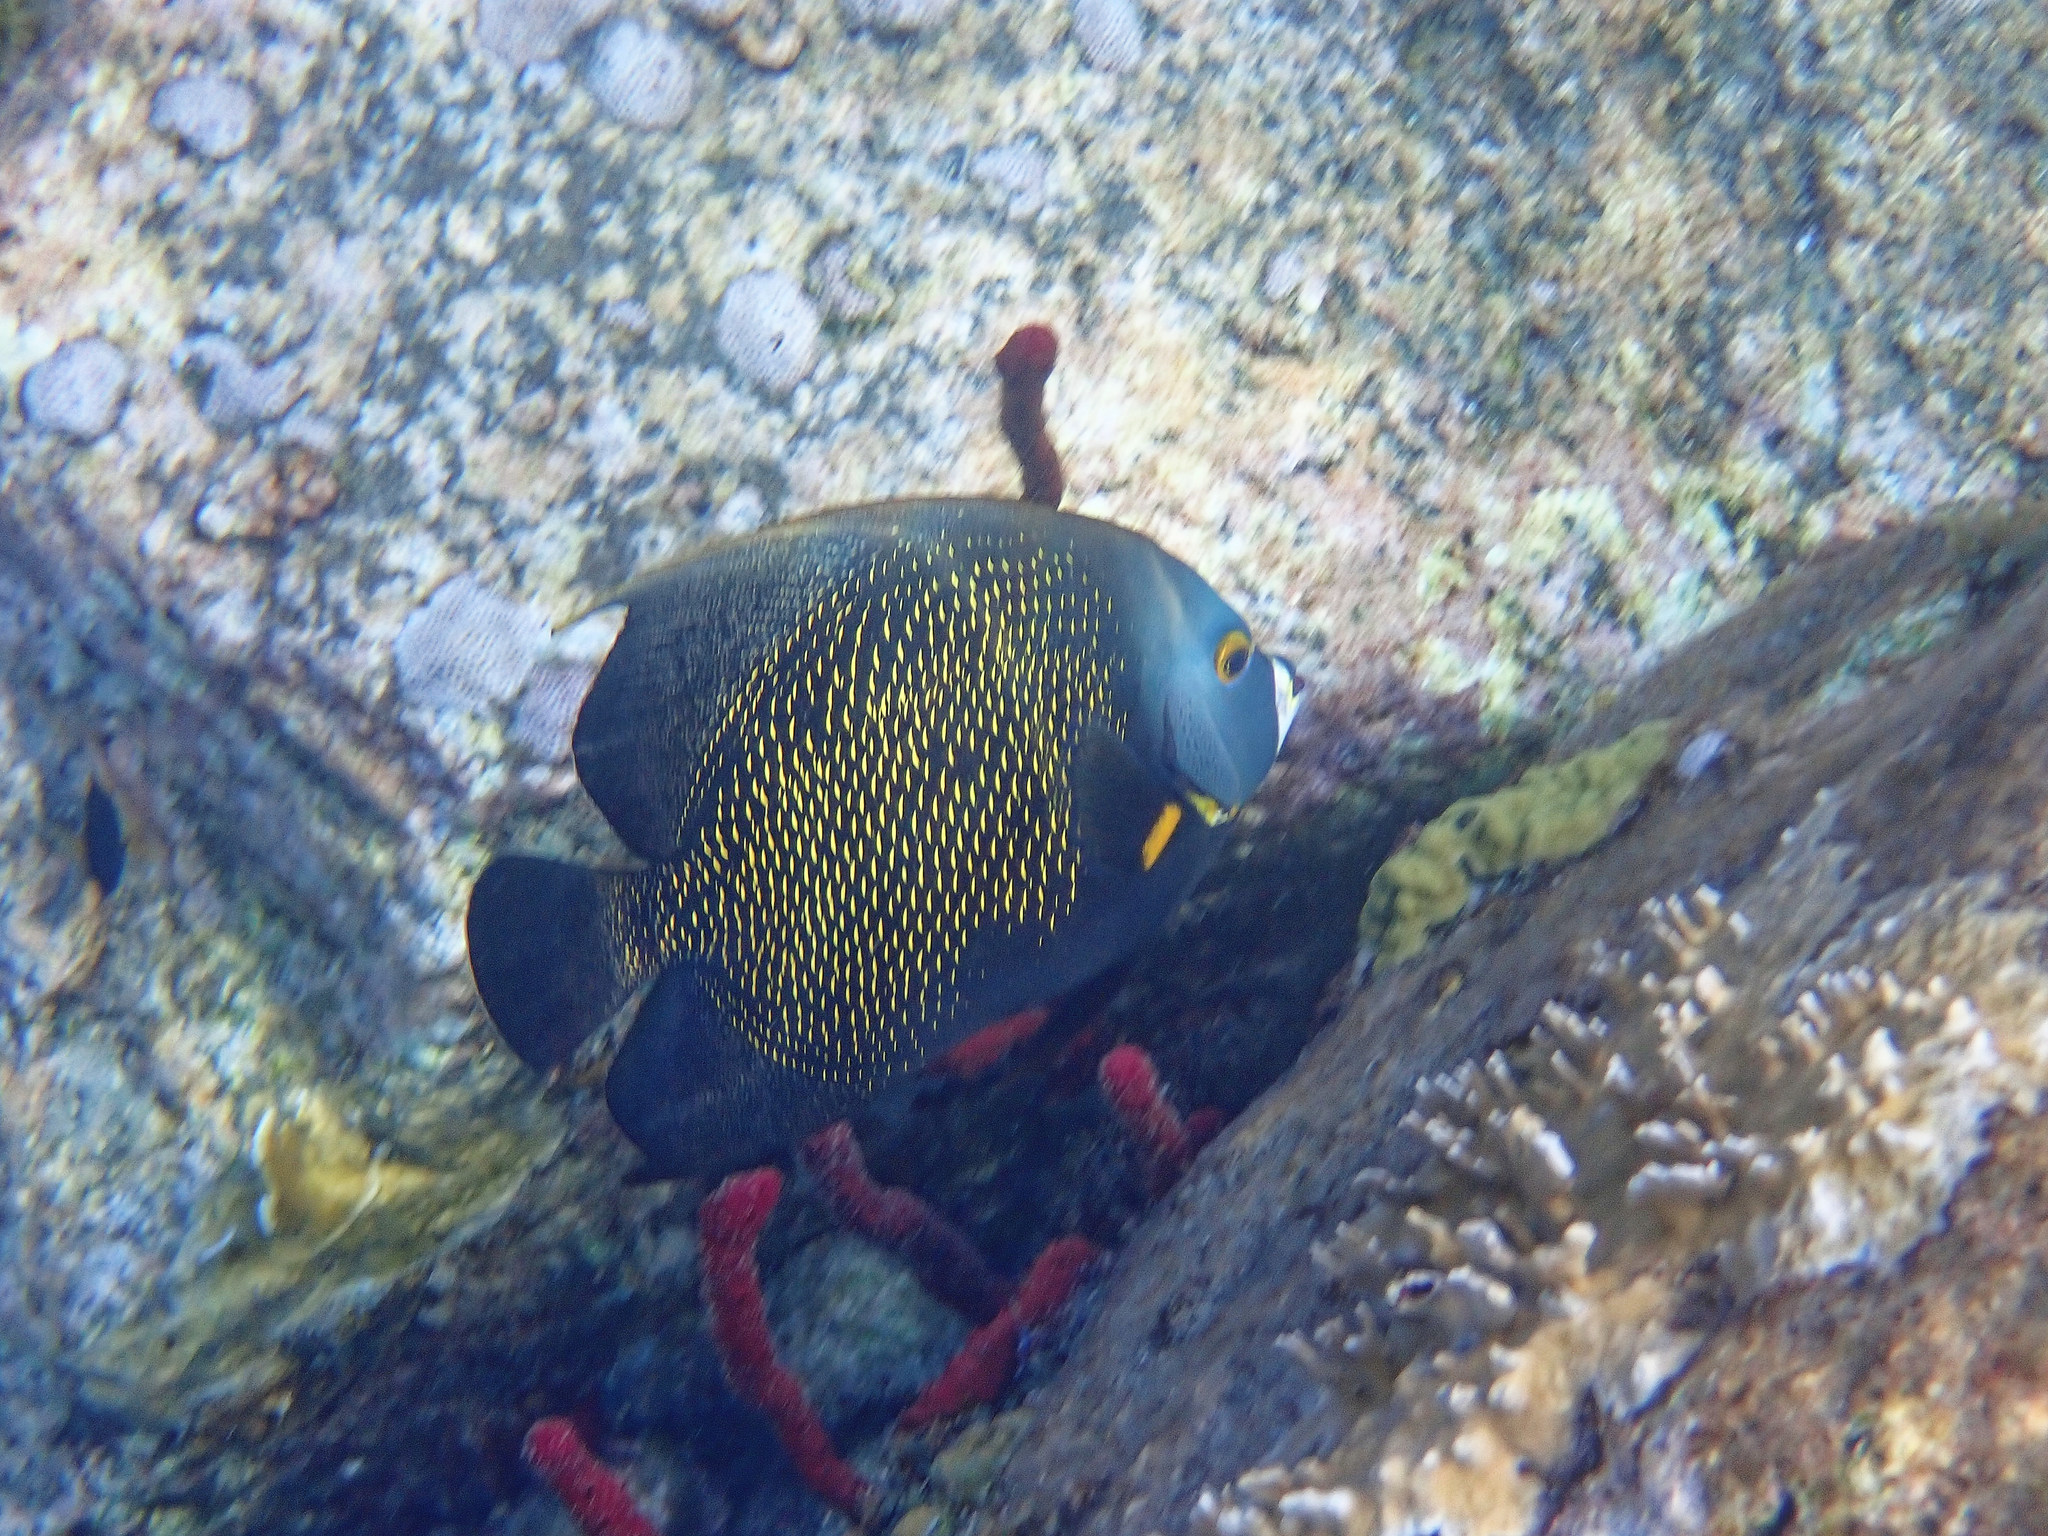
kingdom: Animalia
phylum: Chordata
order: Perciformes
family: Pomacanthidae
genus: Pomacanthus
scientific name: Pomacanthus paru
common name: French angelfish
